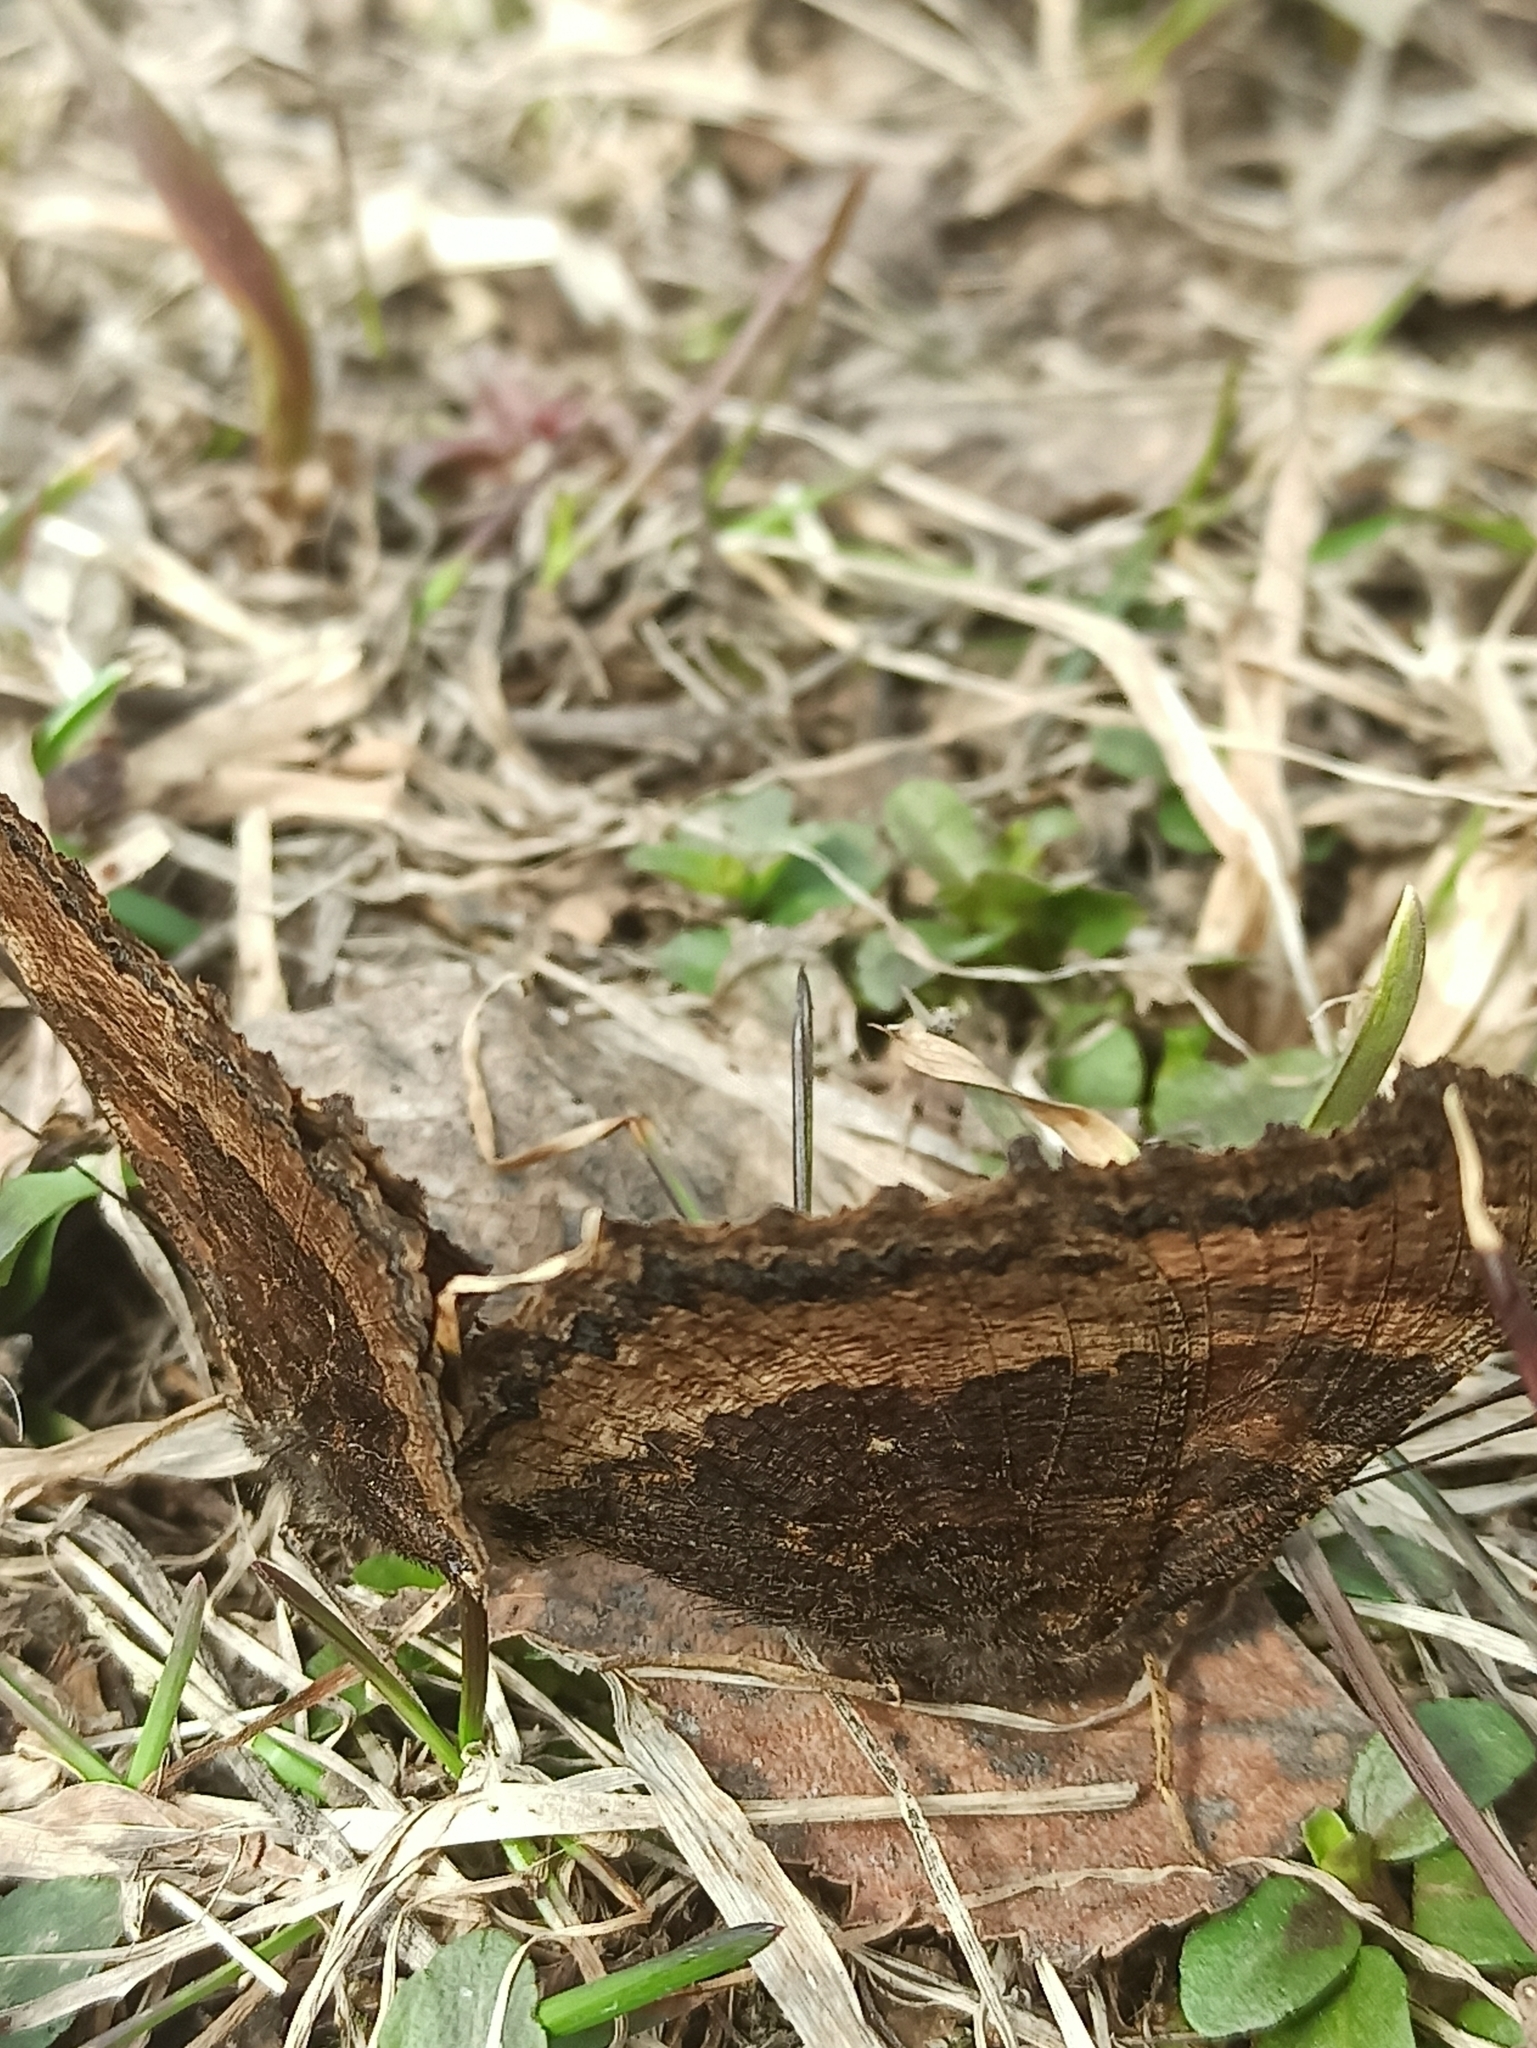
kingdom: Animalia
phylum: Arthropoda
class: Insecta
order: Lepidoptera
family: Nymphalidae
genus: Nymphalis
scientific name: Nymphalis xanthomelas
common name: Scarce tortoiseshell
